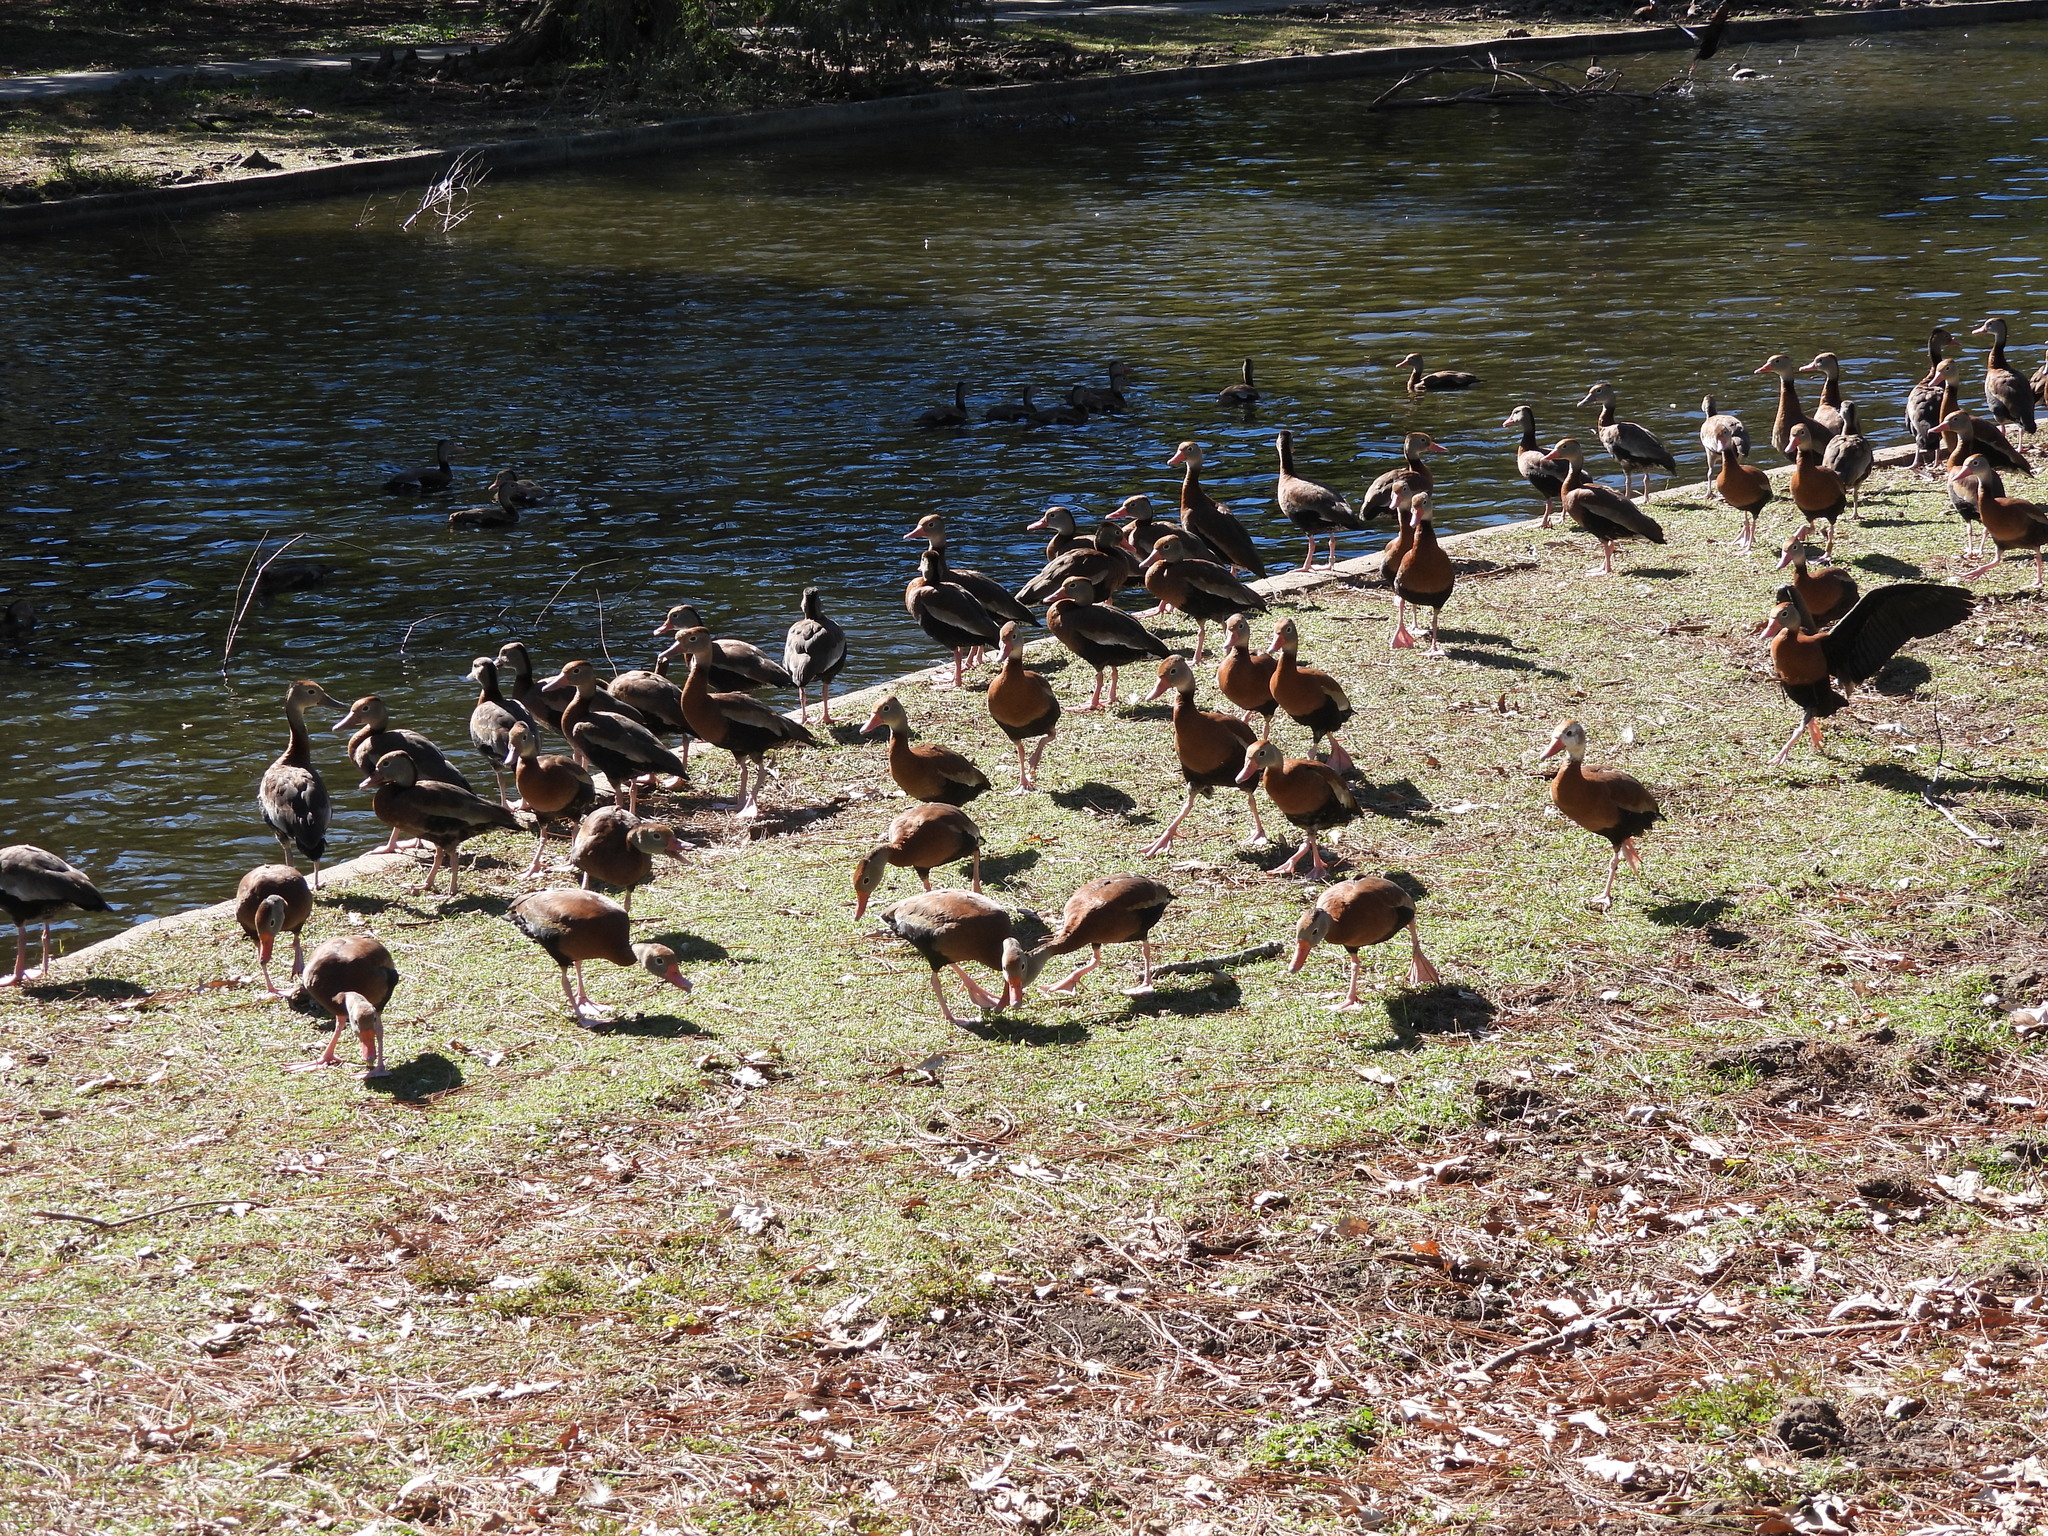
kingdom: Animalia
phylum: Chordata
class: Aves
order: Anseriformes
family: Anatidae
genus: Dendrocygna
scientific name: Dendrocygna autumnalis
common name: Black-bellied whistling duck
